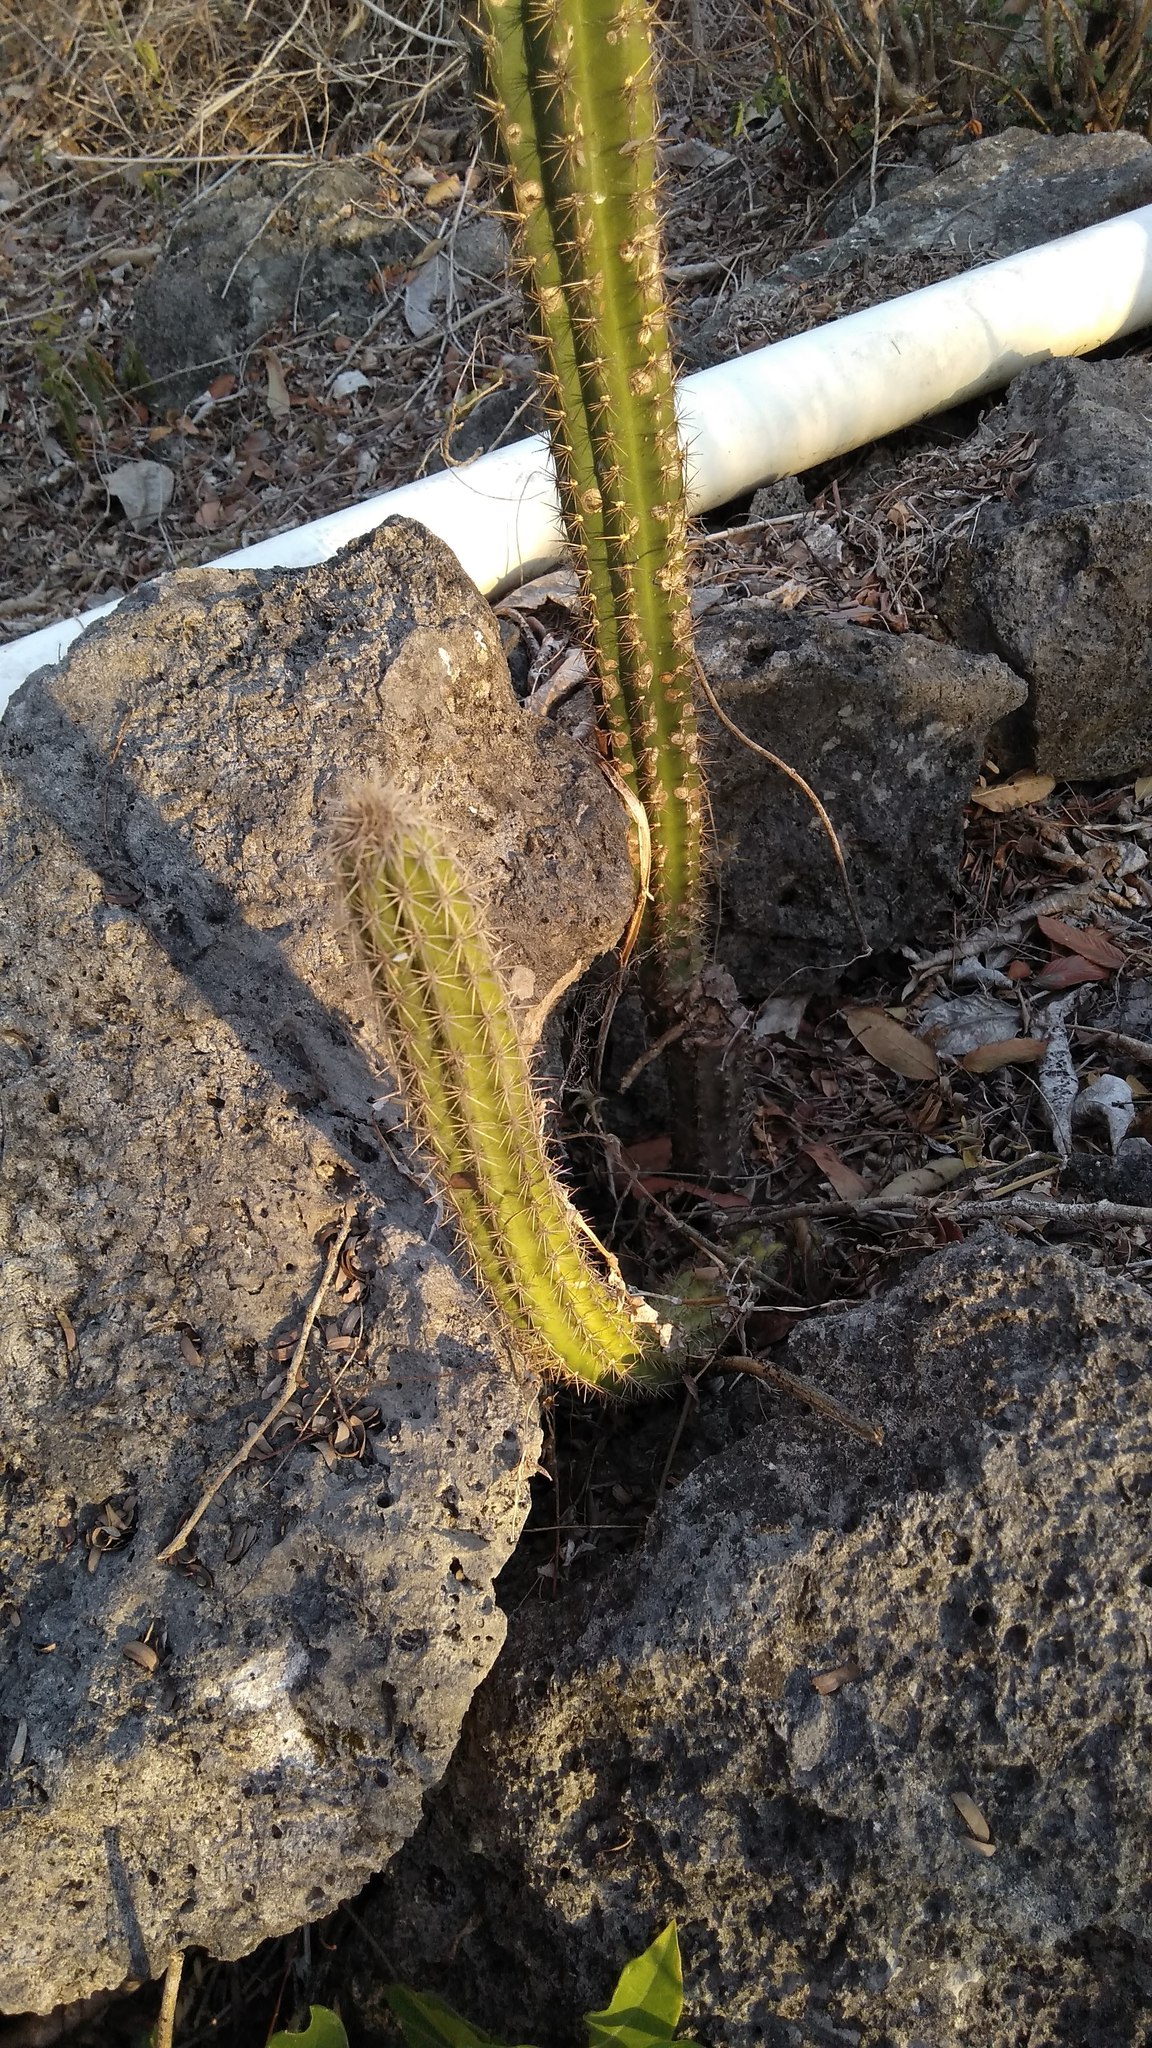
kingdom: Plantae
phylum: Tracheophyta
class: Magnoliopsida
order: Caryophyllales
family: Cactaceae
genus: Pilosocereus
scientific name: Pilosocereus gaumeri
